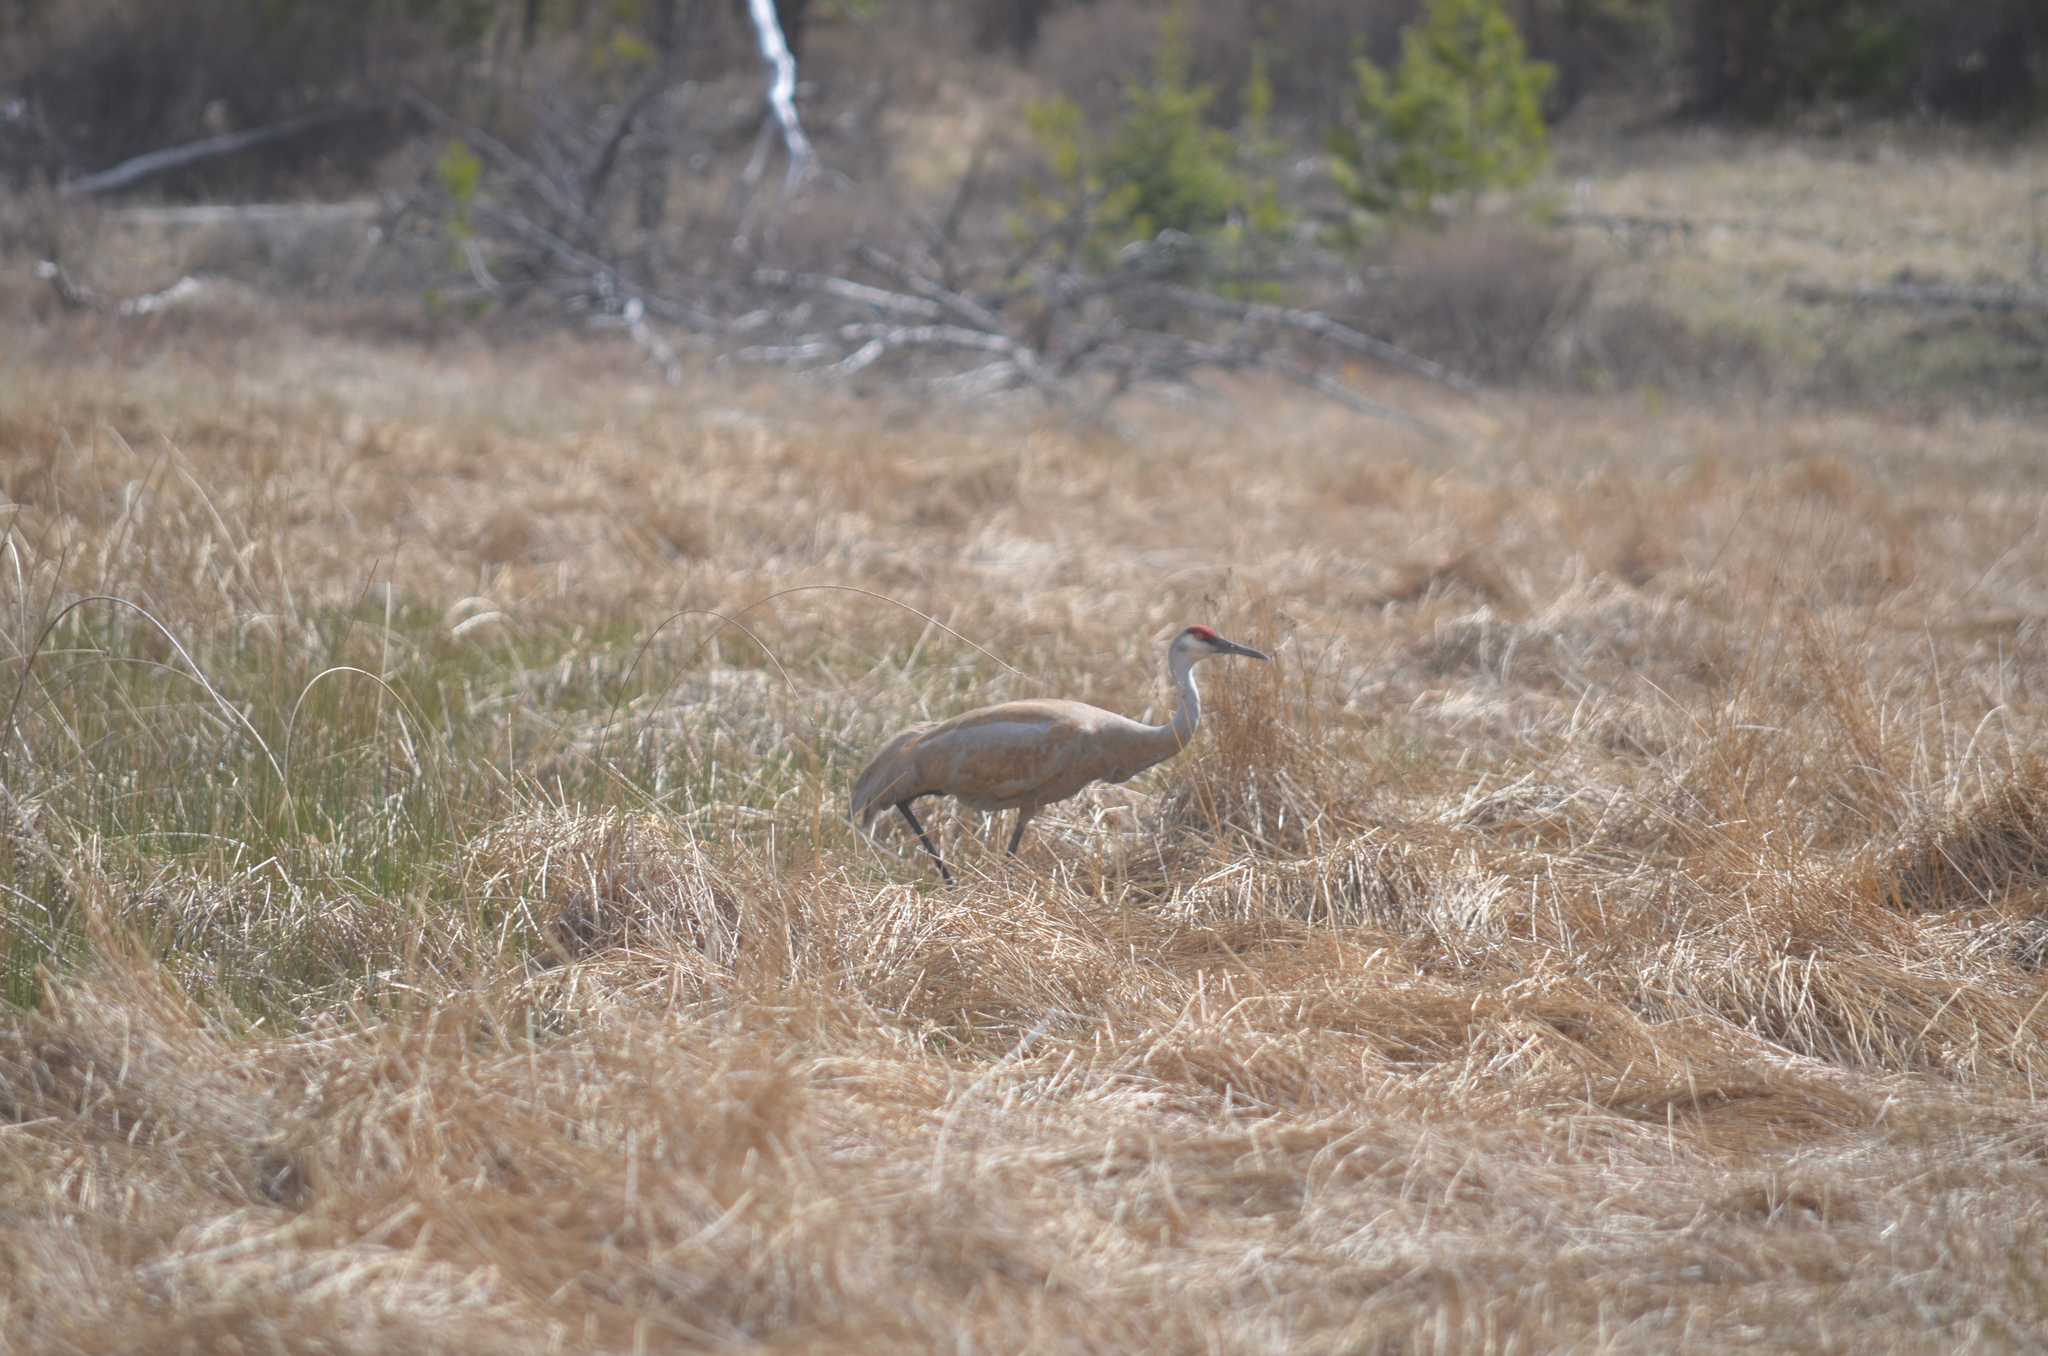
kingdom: Animalia
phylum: Chordata
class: Aves
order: Gruiformes
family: Gruidae
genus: Grus
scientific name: Grus canadensis
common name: Sandhill crane
